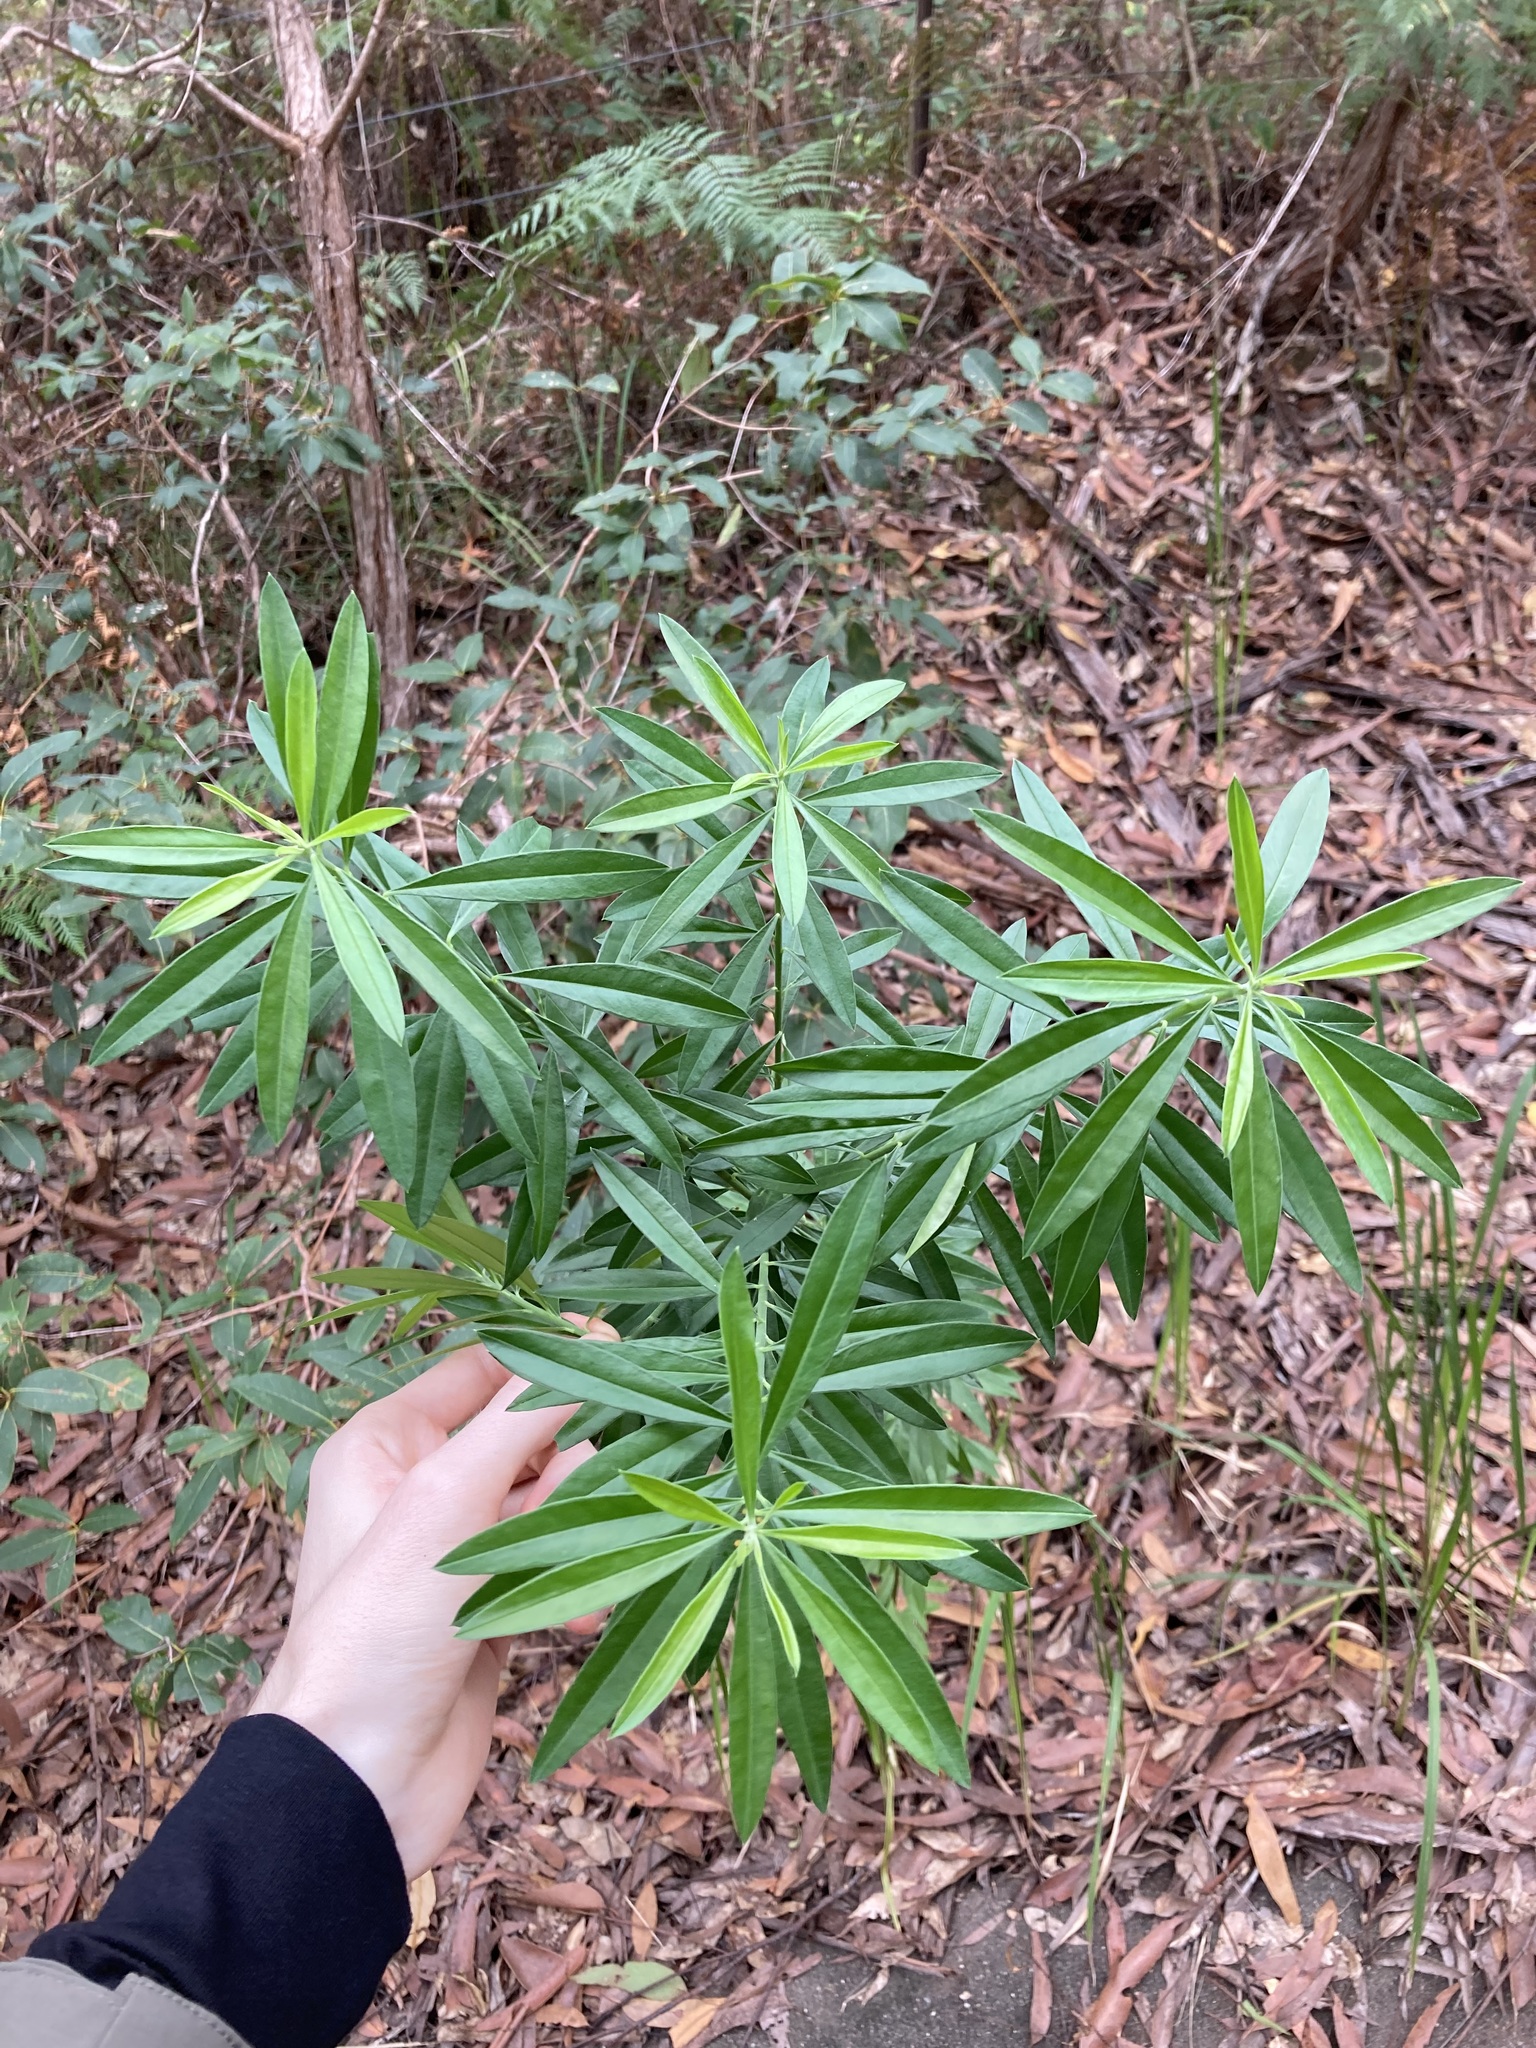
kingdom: Plantae
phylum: Tracheophyta
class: Magnoliopsida
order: Fabales
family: Polygalaceae
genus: Polygala
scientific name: Polygala virgata
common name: Milkwort
